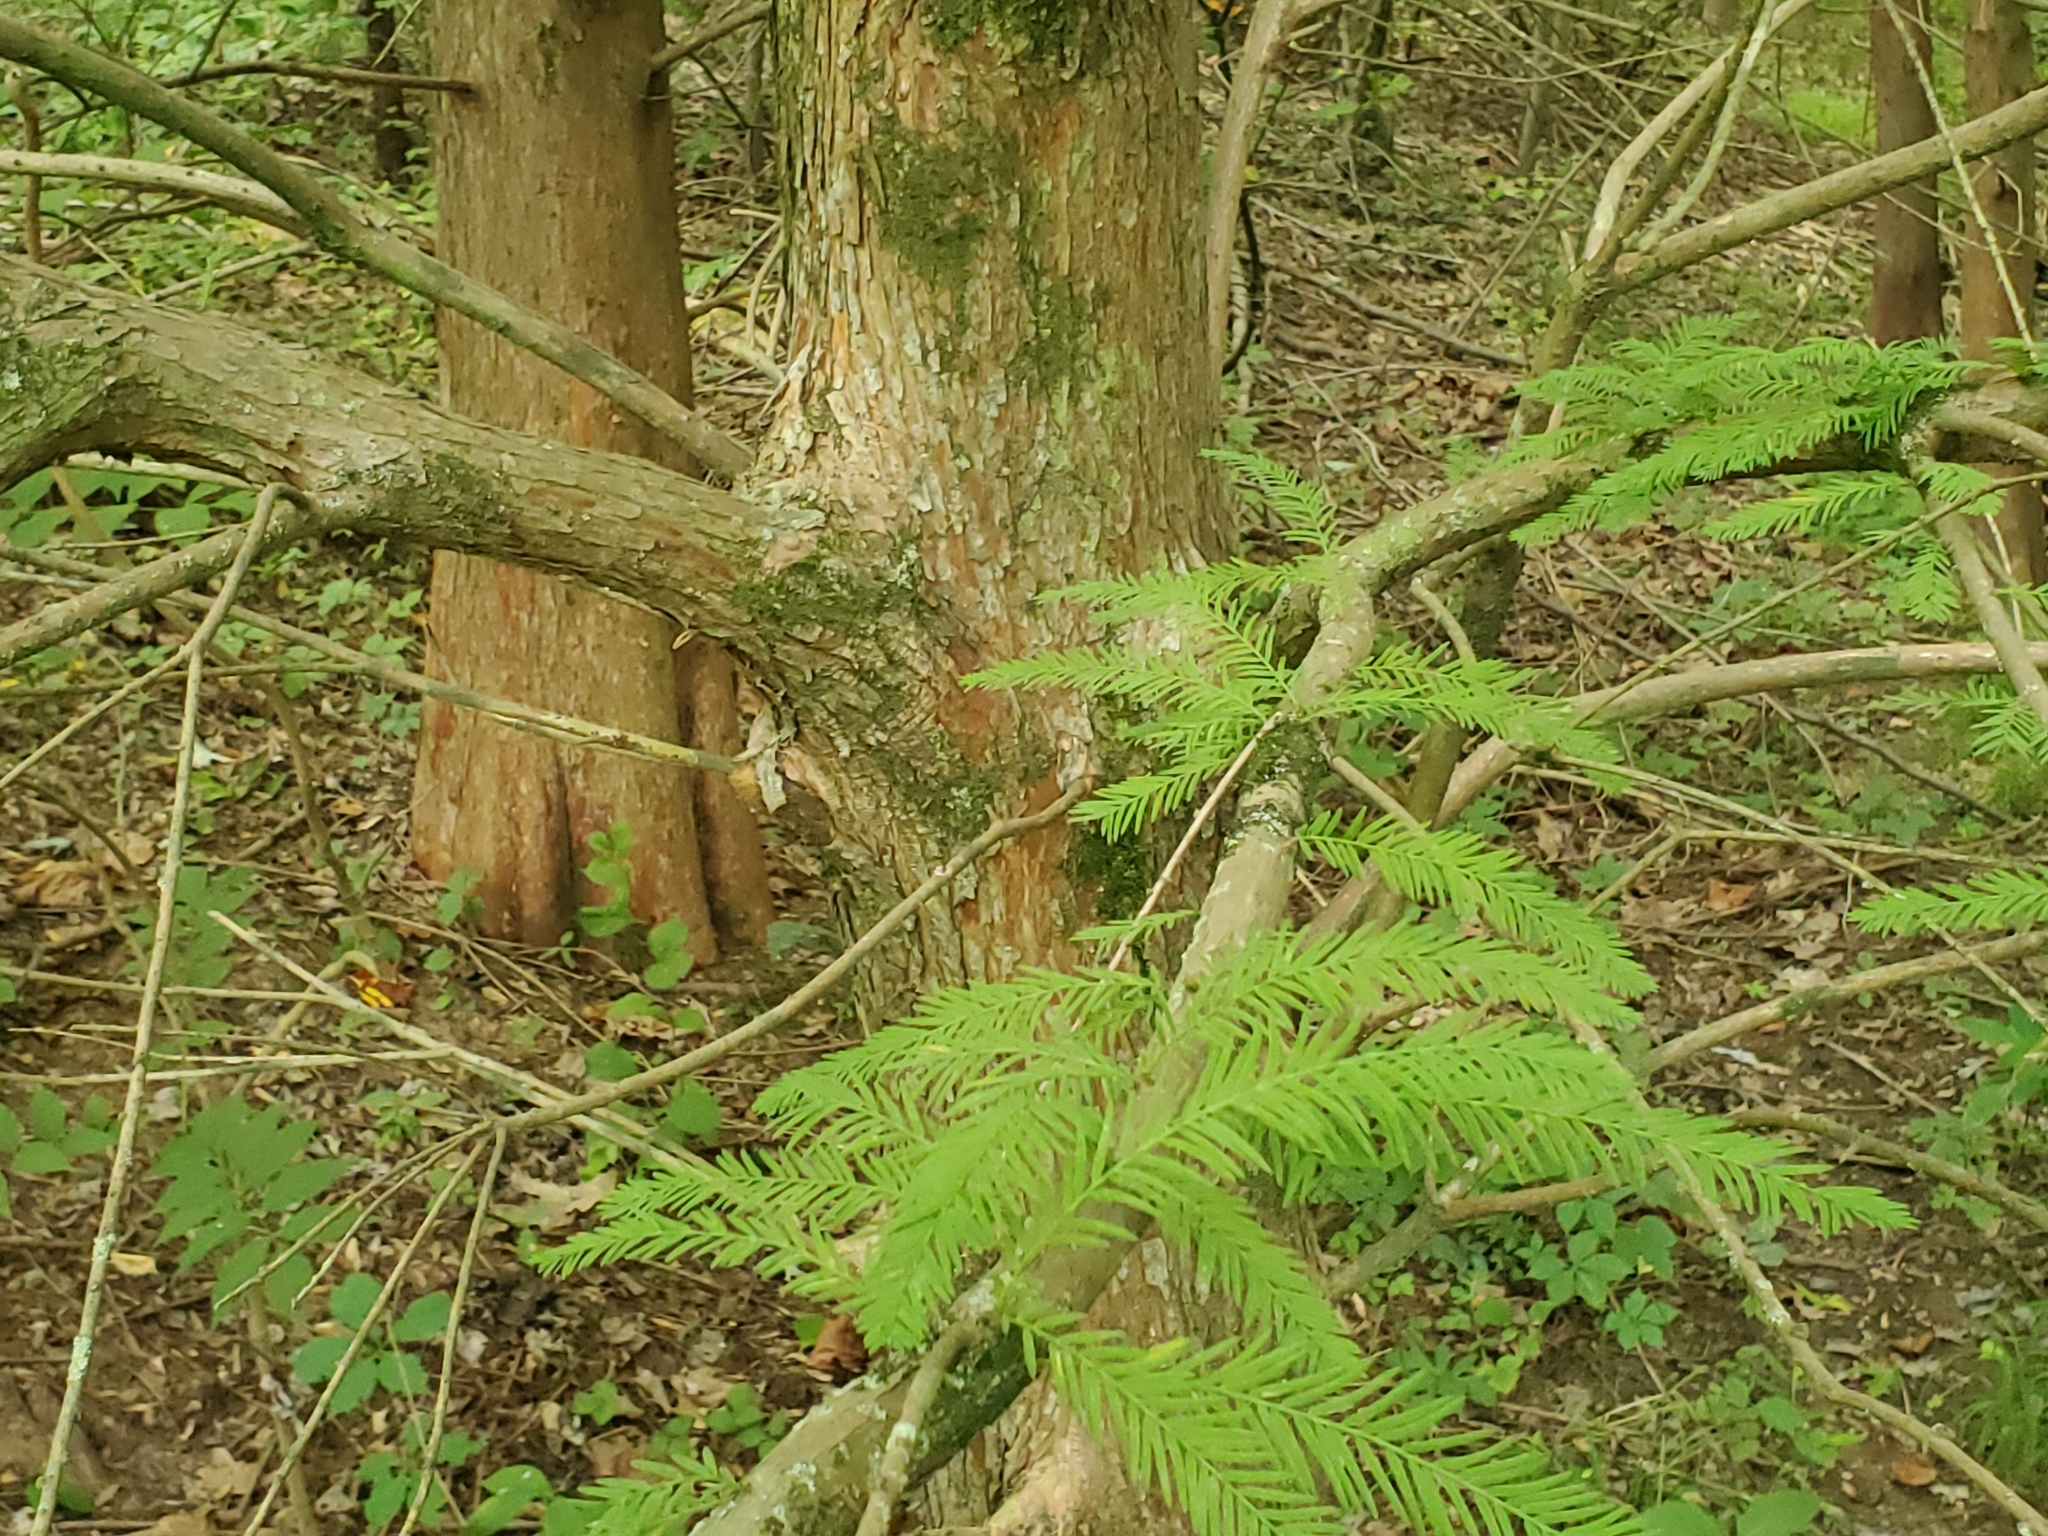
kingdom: Plantae
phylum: Tracheophyta
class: Pinopsida
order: Pinales
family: Cupressaceae
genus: Taxodium
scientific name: Taxodium distichum
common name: Bald cypress
